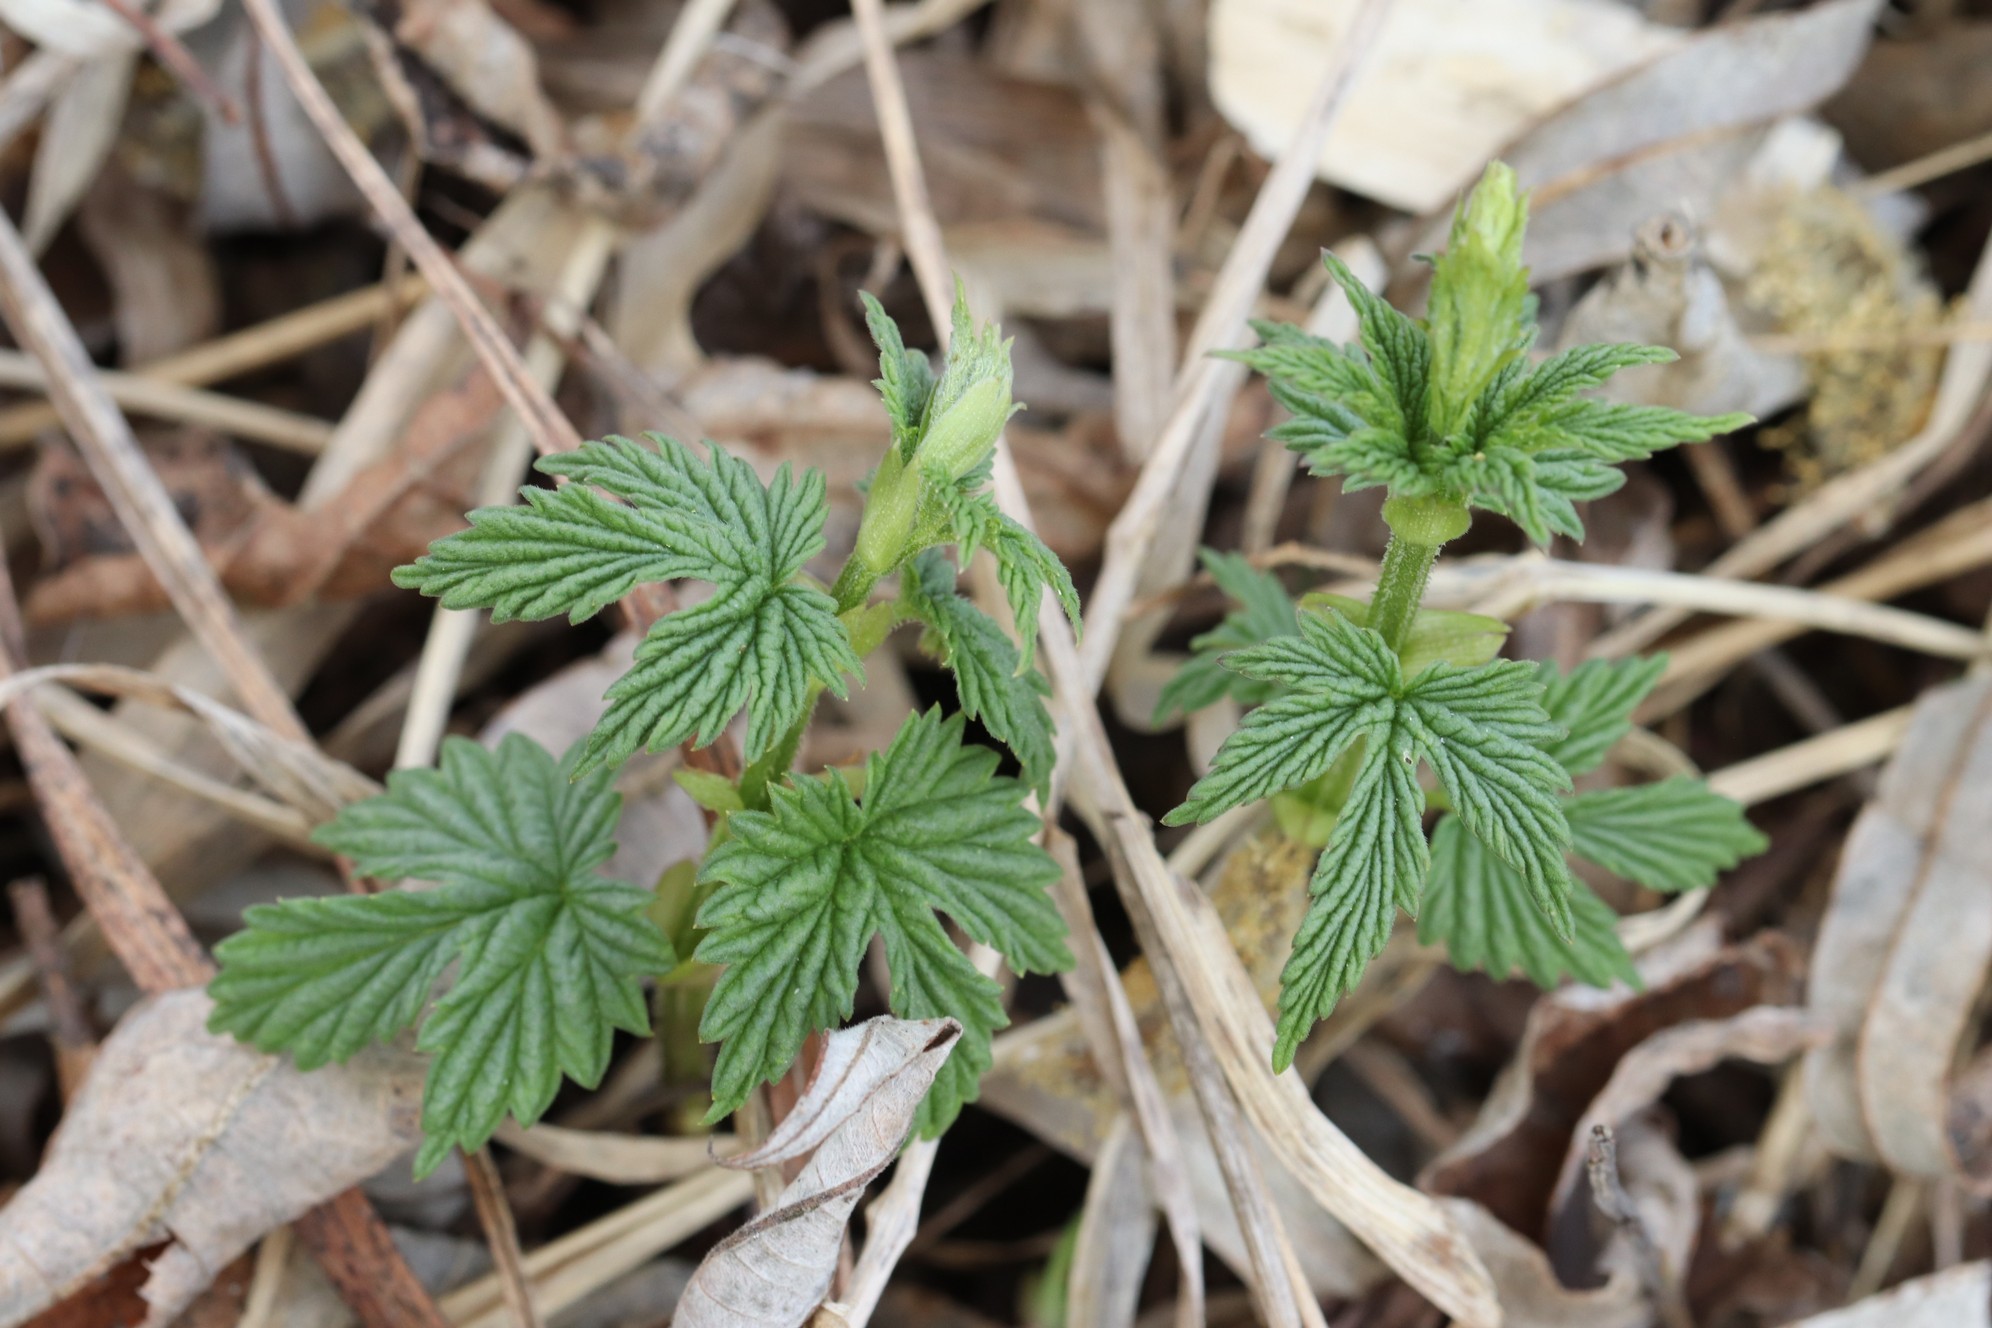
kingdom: Plantae
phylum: Tracheophyta
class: Magnoliopsida
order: Rosales
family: Cannabaceae
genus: Humulus
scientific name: Humulus lupulus
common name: Hop
